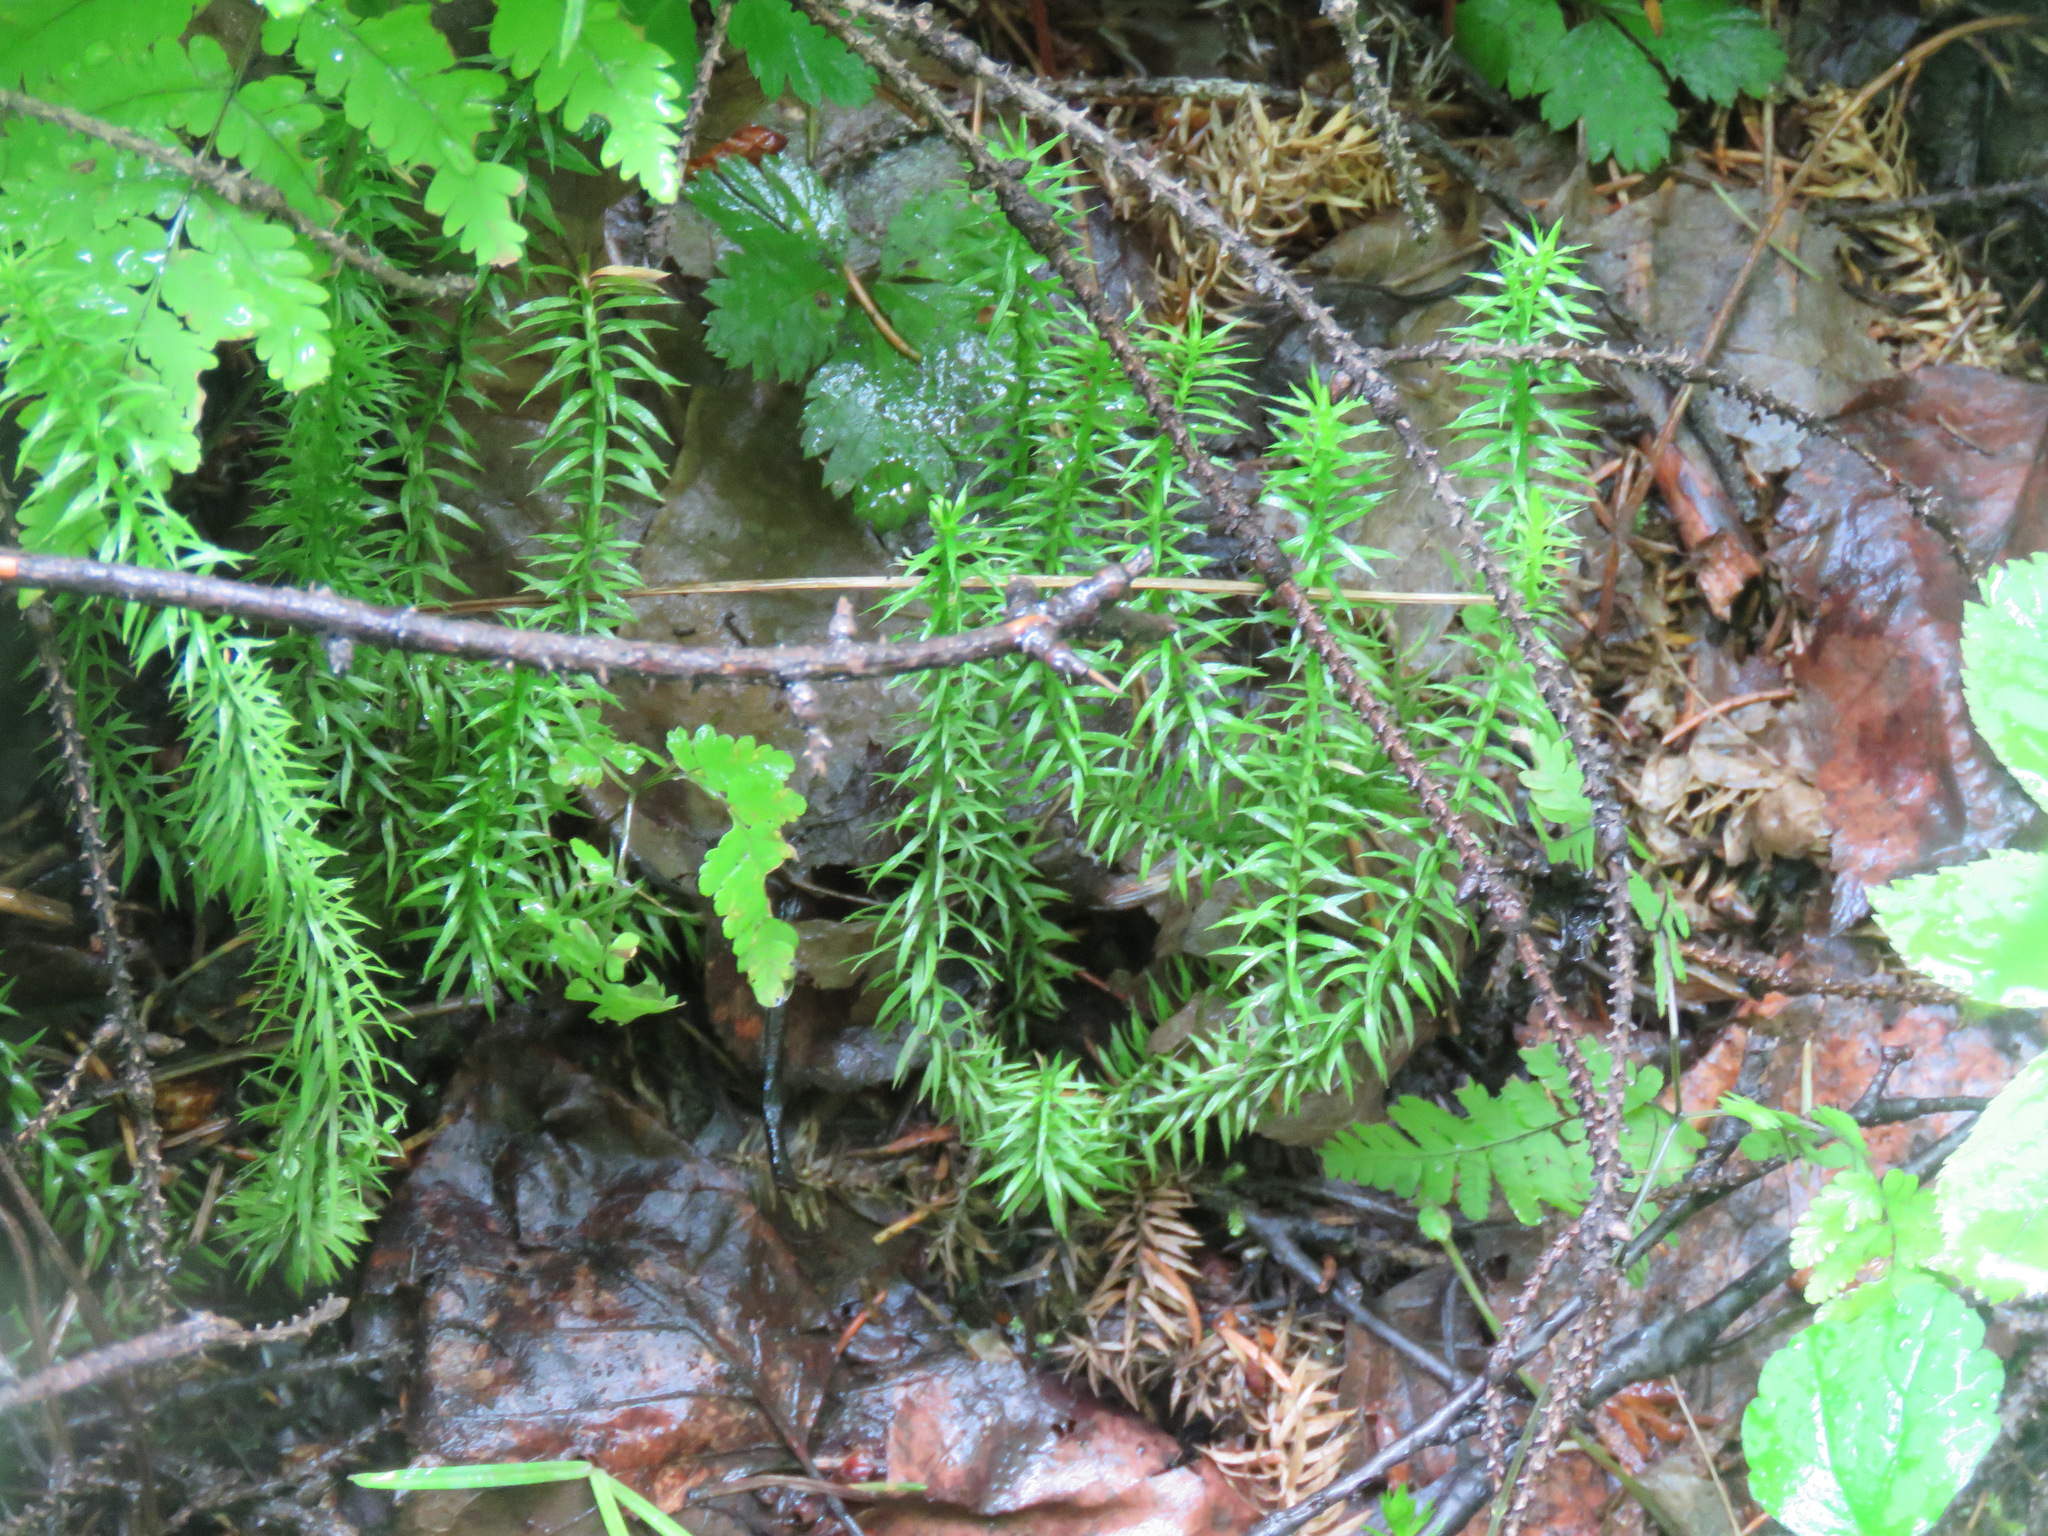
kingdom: Plantae
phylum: Tracheophyta
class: Lycopodiopsida
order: Lycopodiales
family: Lycopodiaceae
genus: Spinulum
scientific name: Spinulum annotinum
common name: Interrupted club-moss
